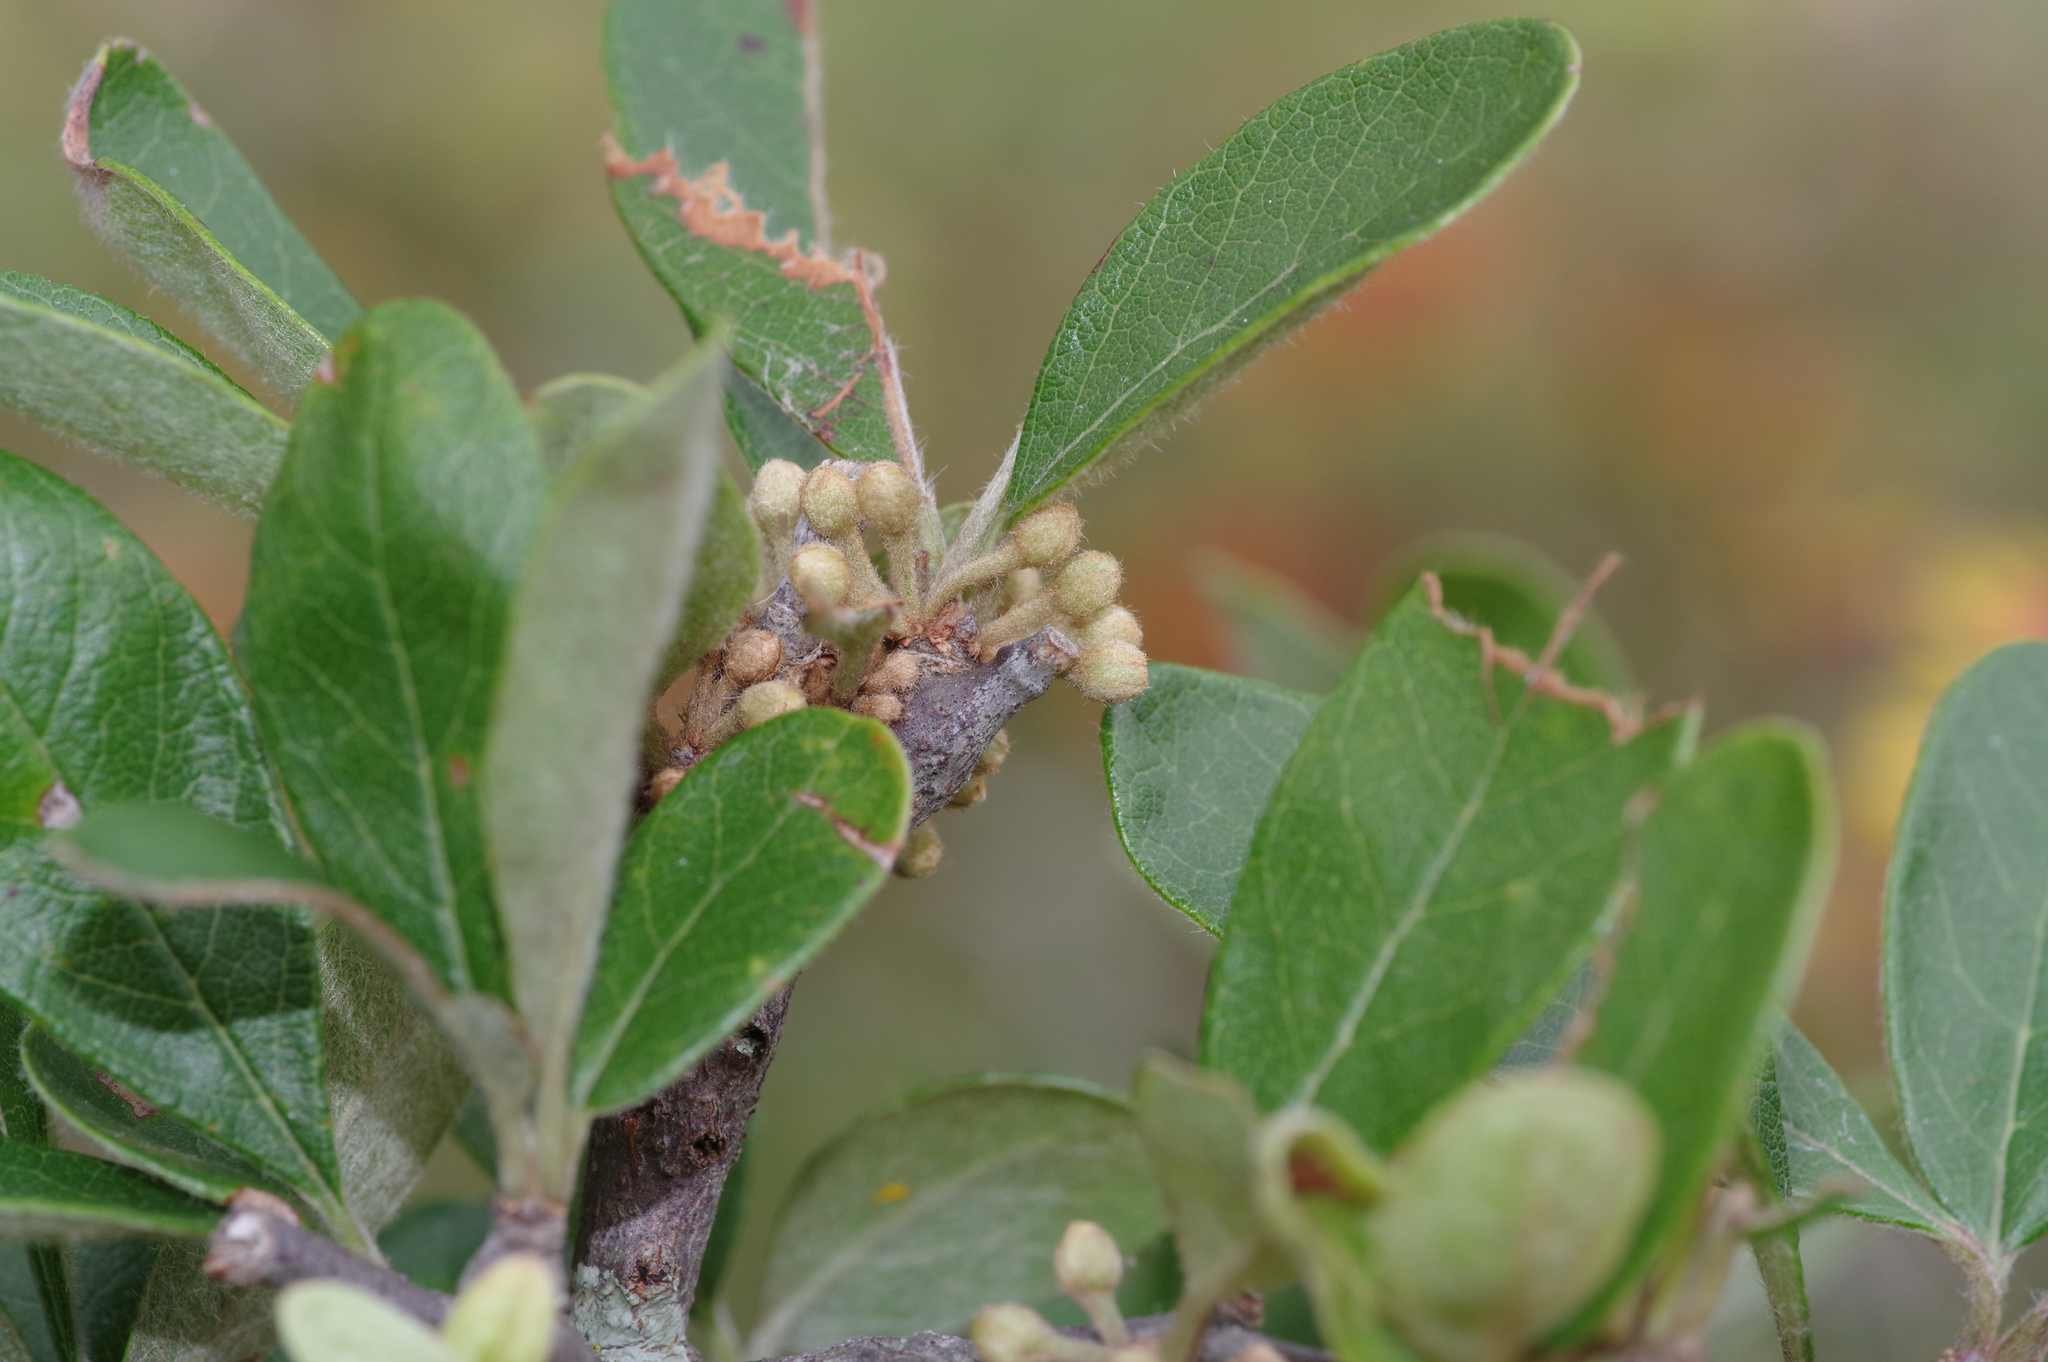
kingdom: Plantae
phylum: Tracheophyta
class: Magnoliopsida
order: Ericales
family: Sapotaceae
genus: Sideroxylon
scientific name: Sideroxylon lanuginosum
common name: Chittamwood
